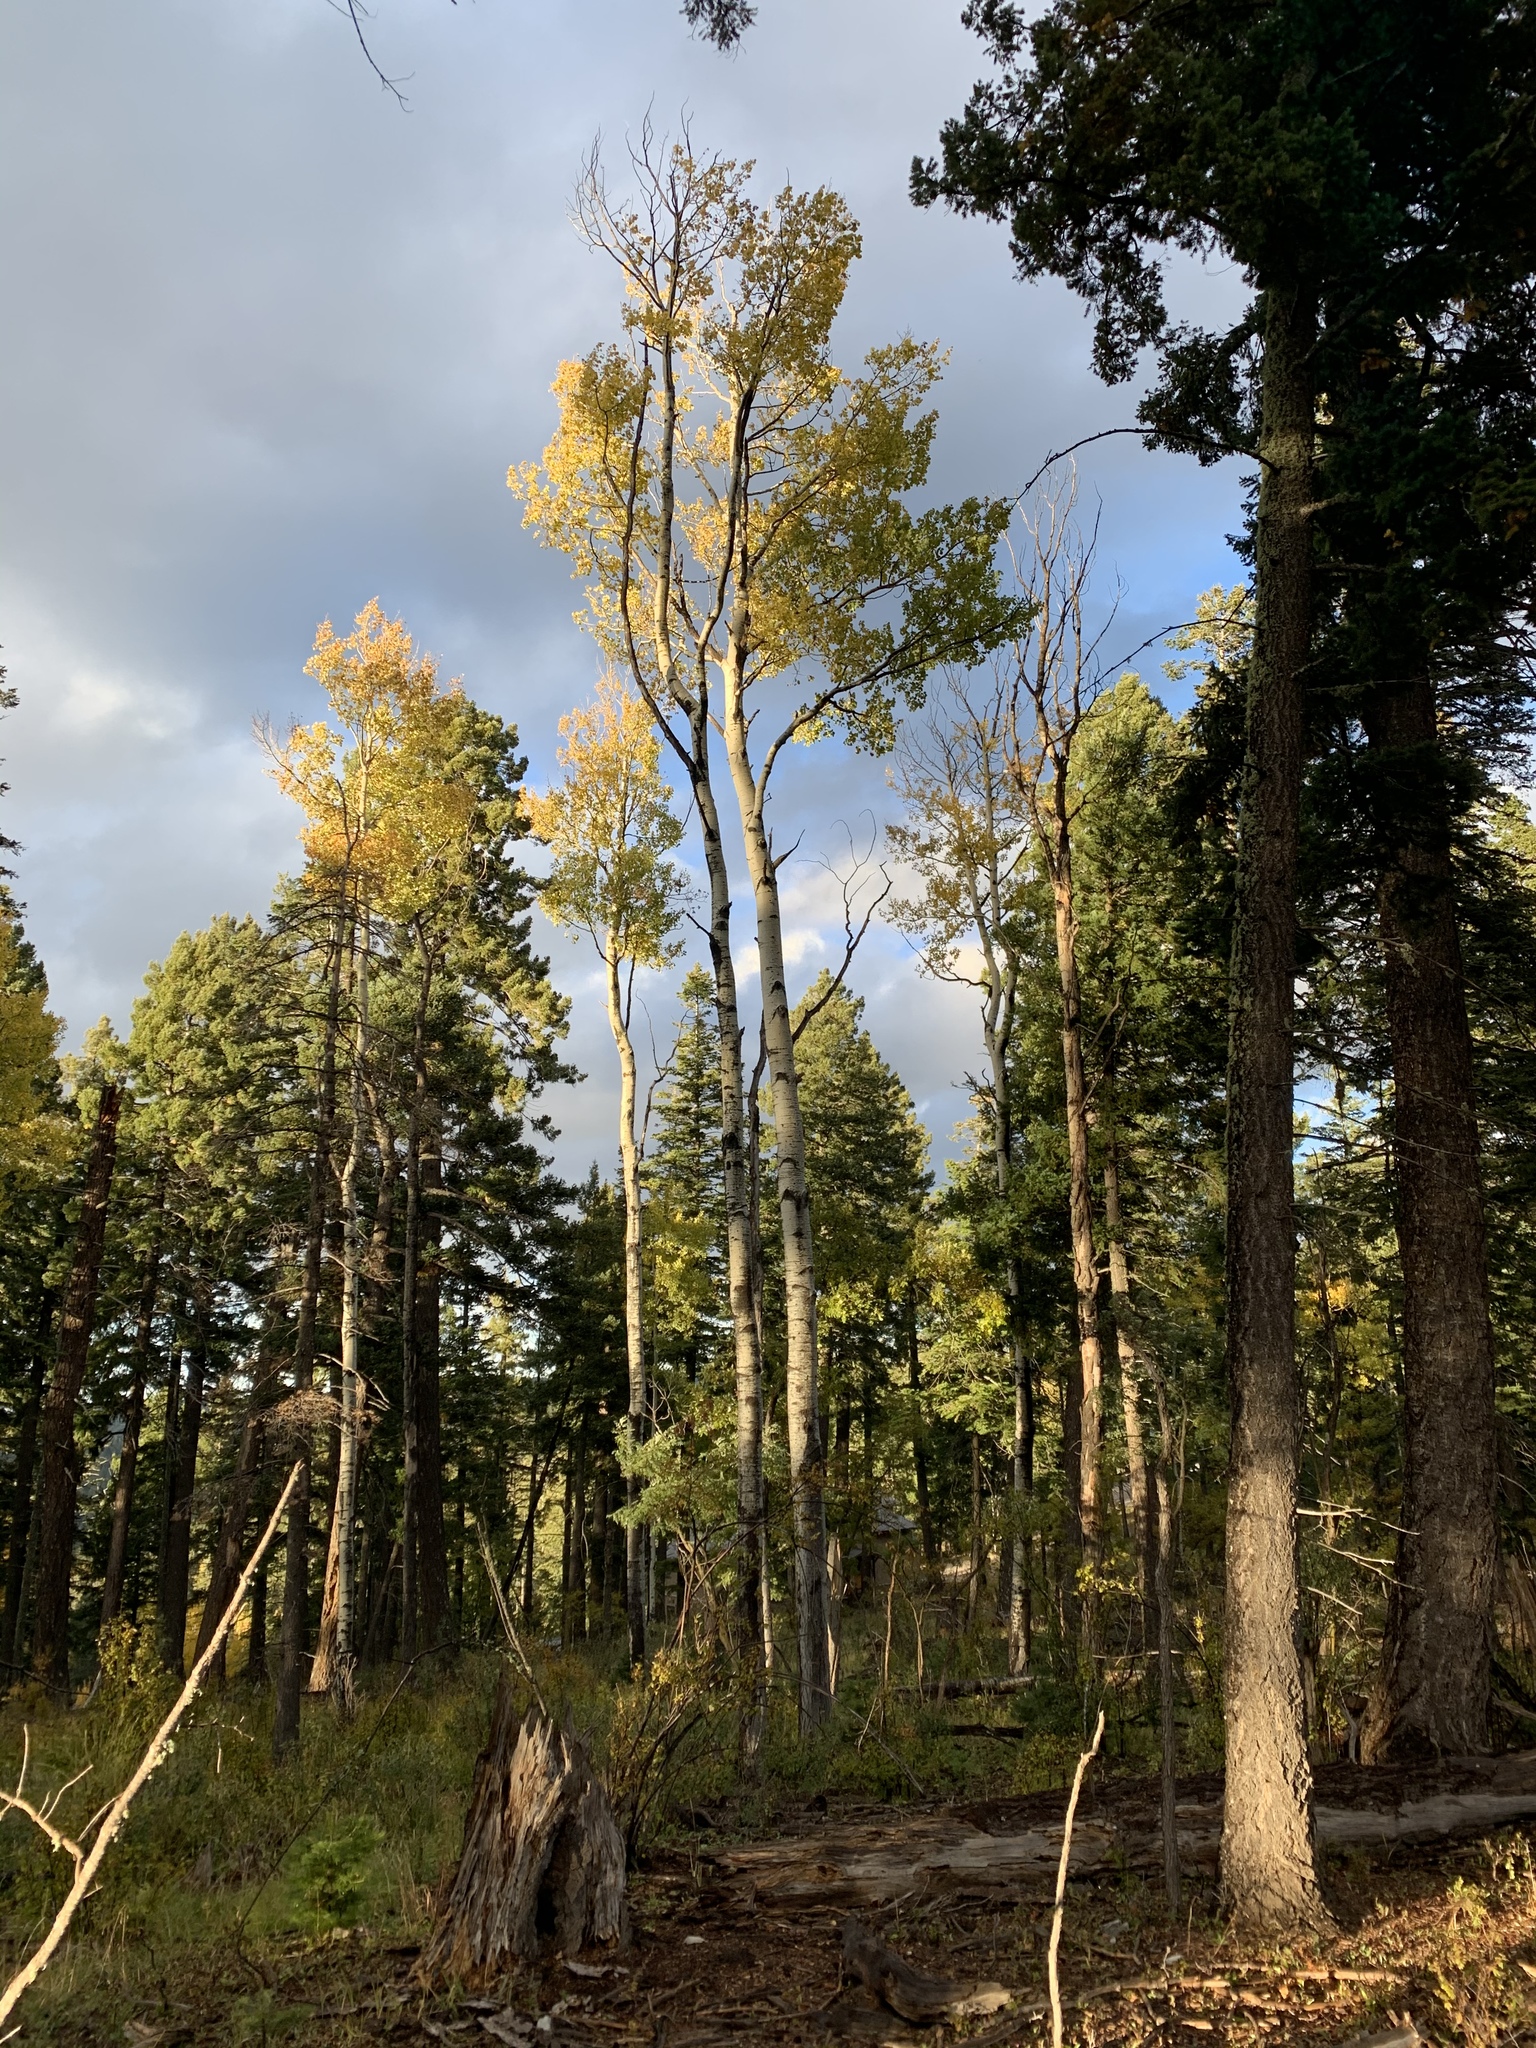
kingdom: Plantae
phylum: Tracheophyta
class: Magnoliopsida
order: Malpighiales
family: Salicaceae
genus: Populus
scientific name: Populus tremuloides
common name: Quaking aspen
